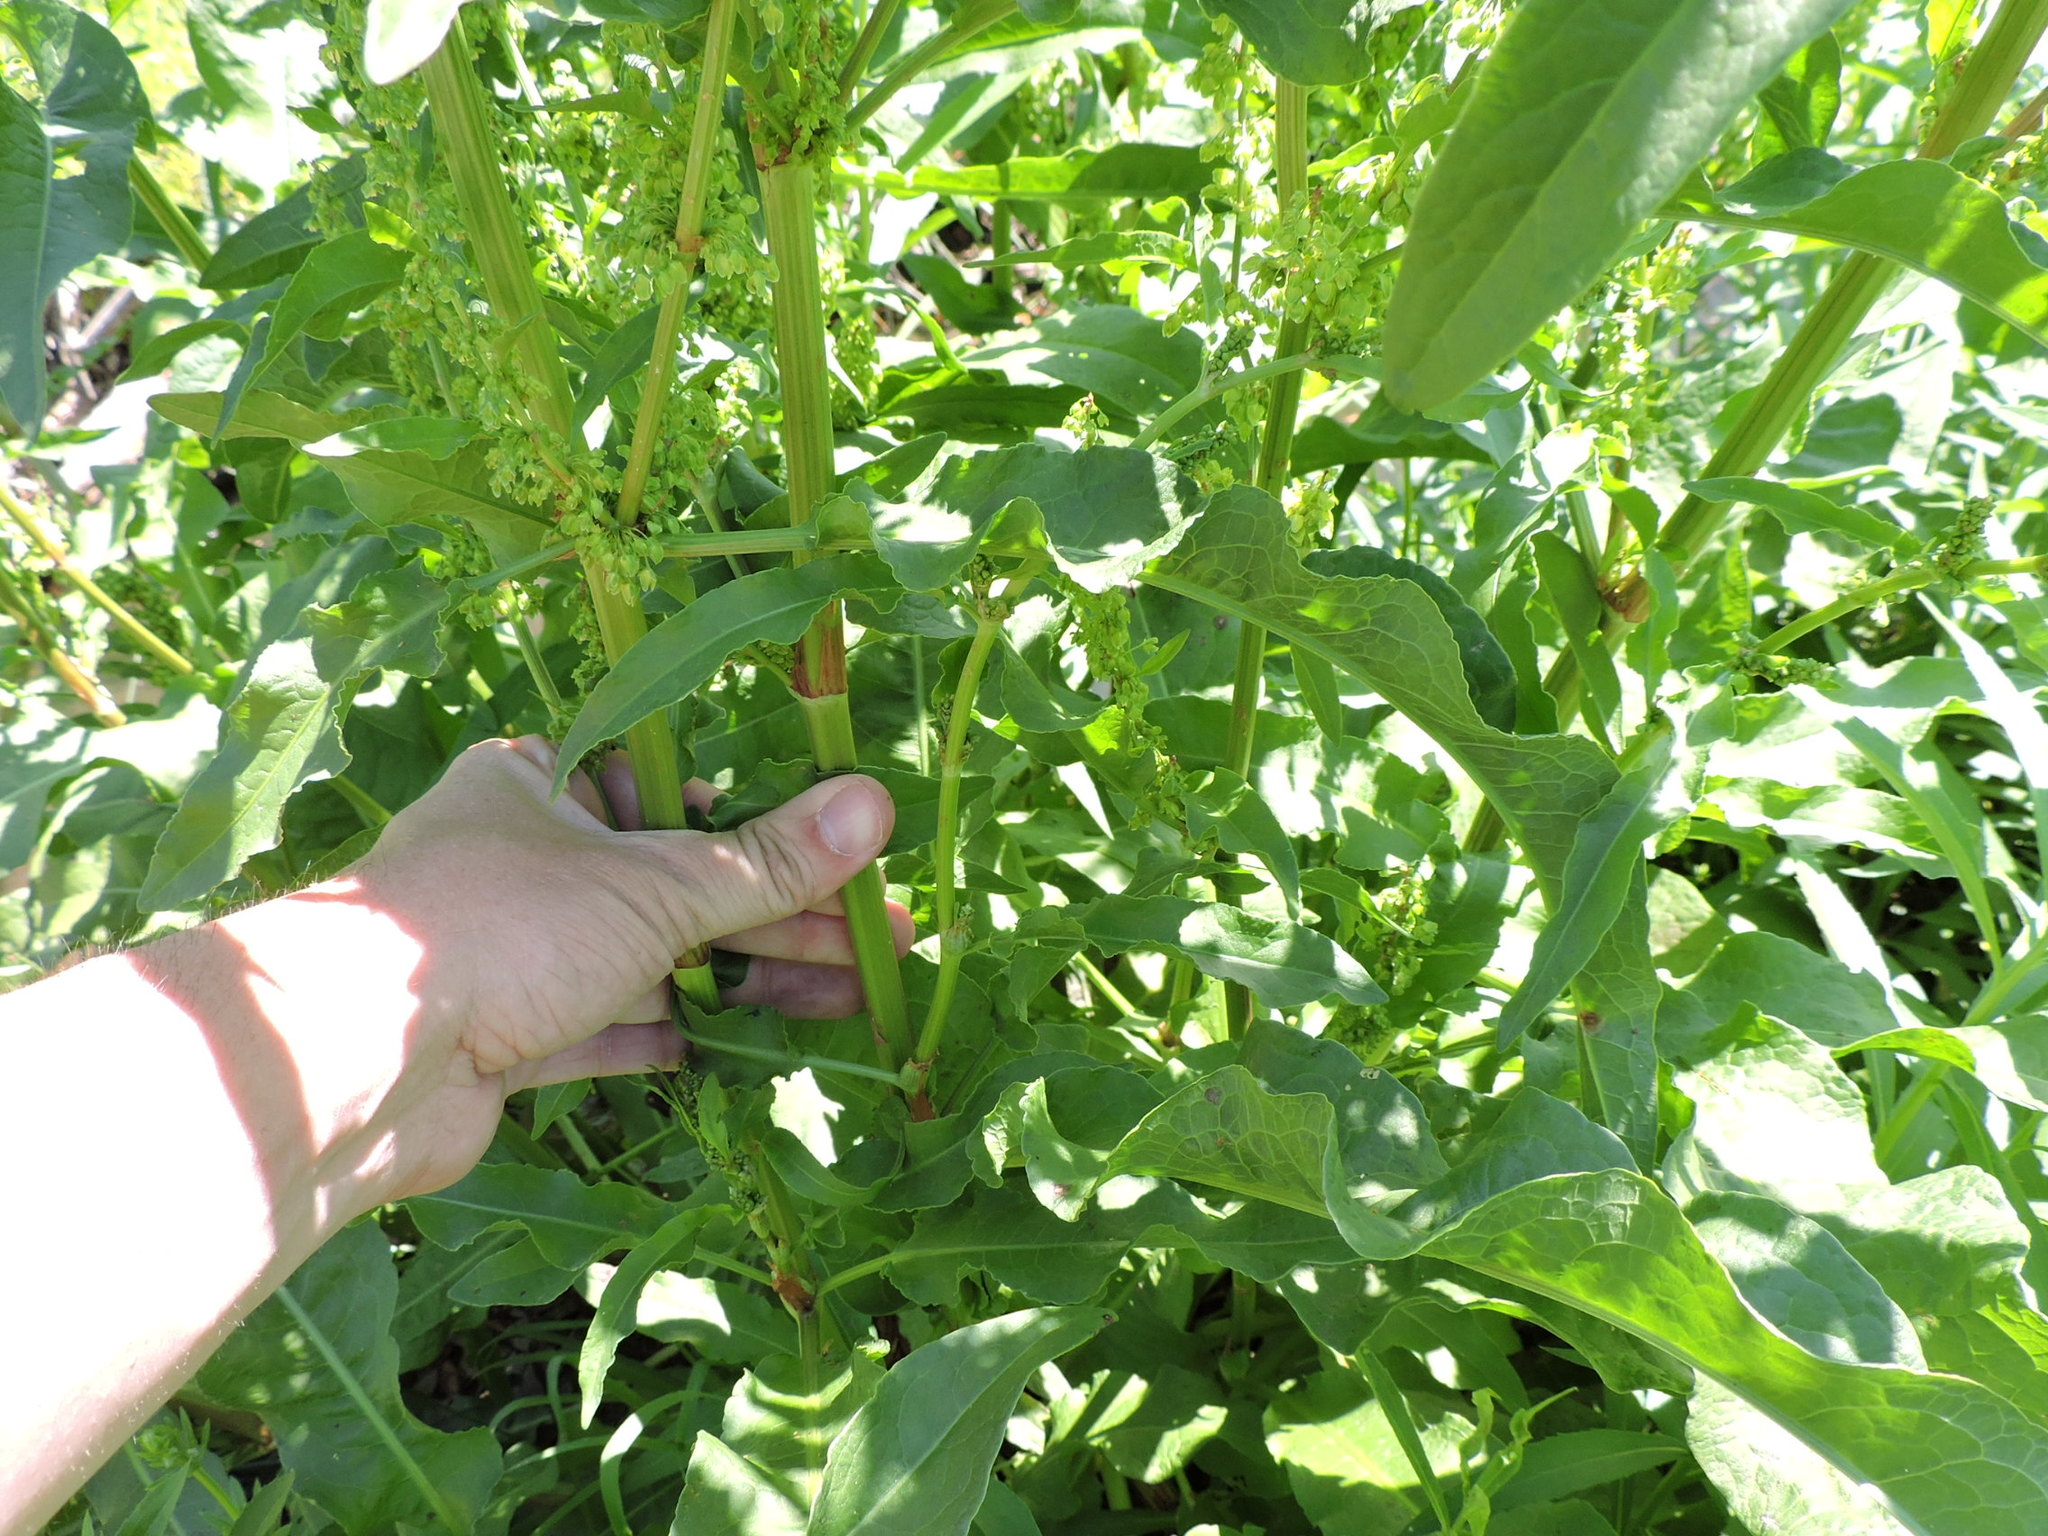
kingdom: Plantae
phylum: Tracheophyta
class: Magnoliopsida
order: Caryophyllales
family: Polygonaceae
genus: Rumex
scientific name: Rumex crispus
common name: Curled dock
